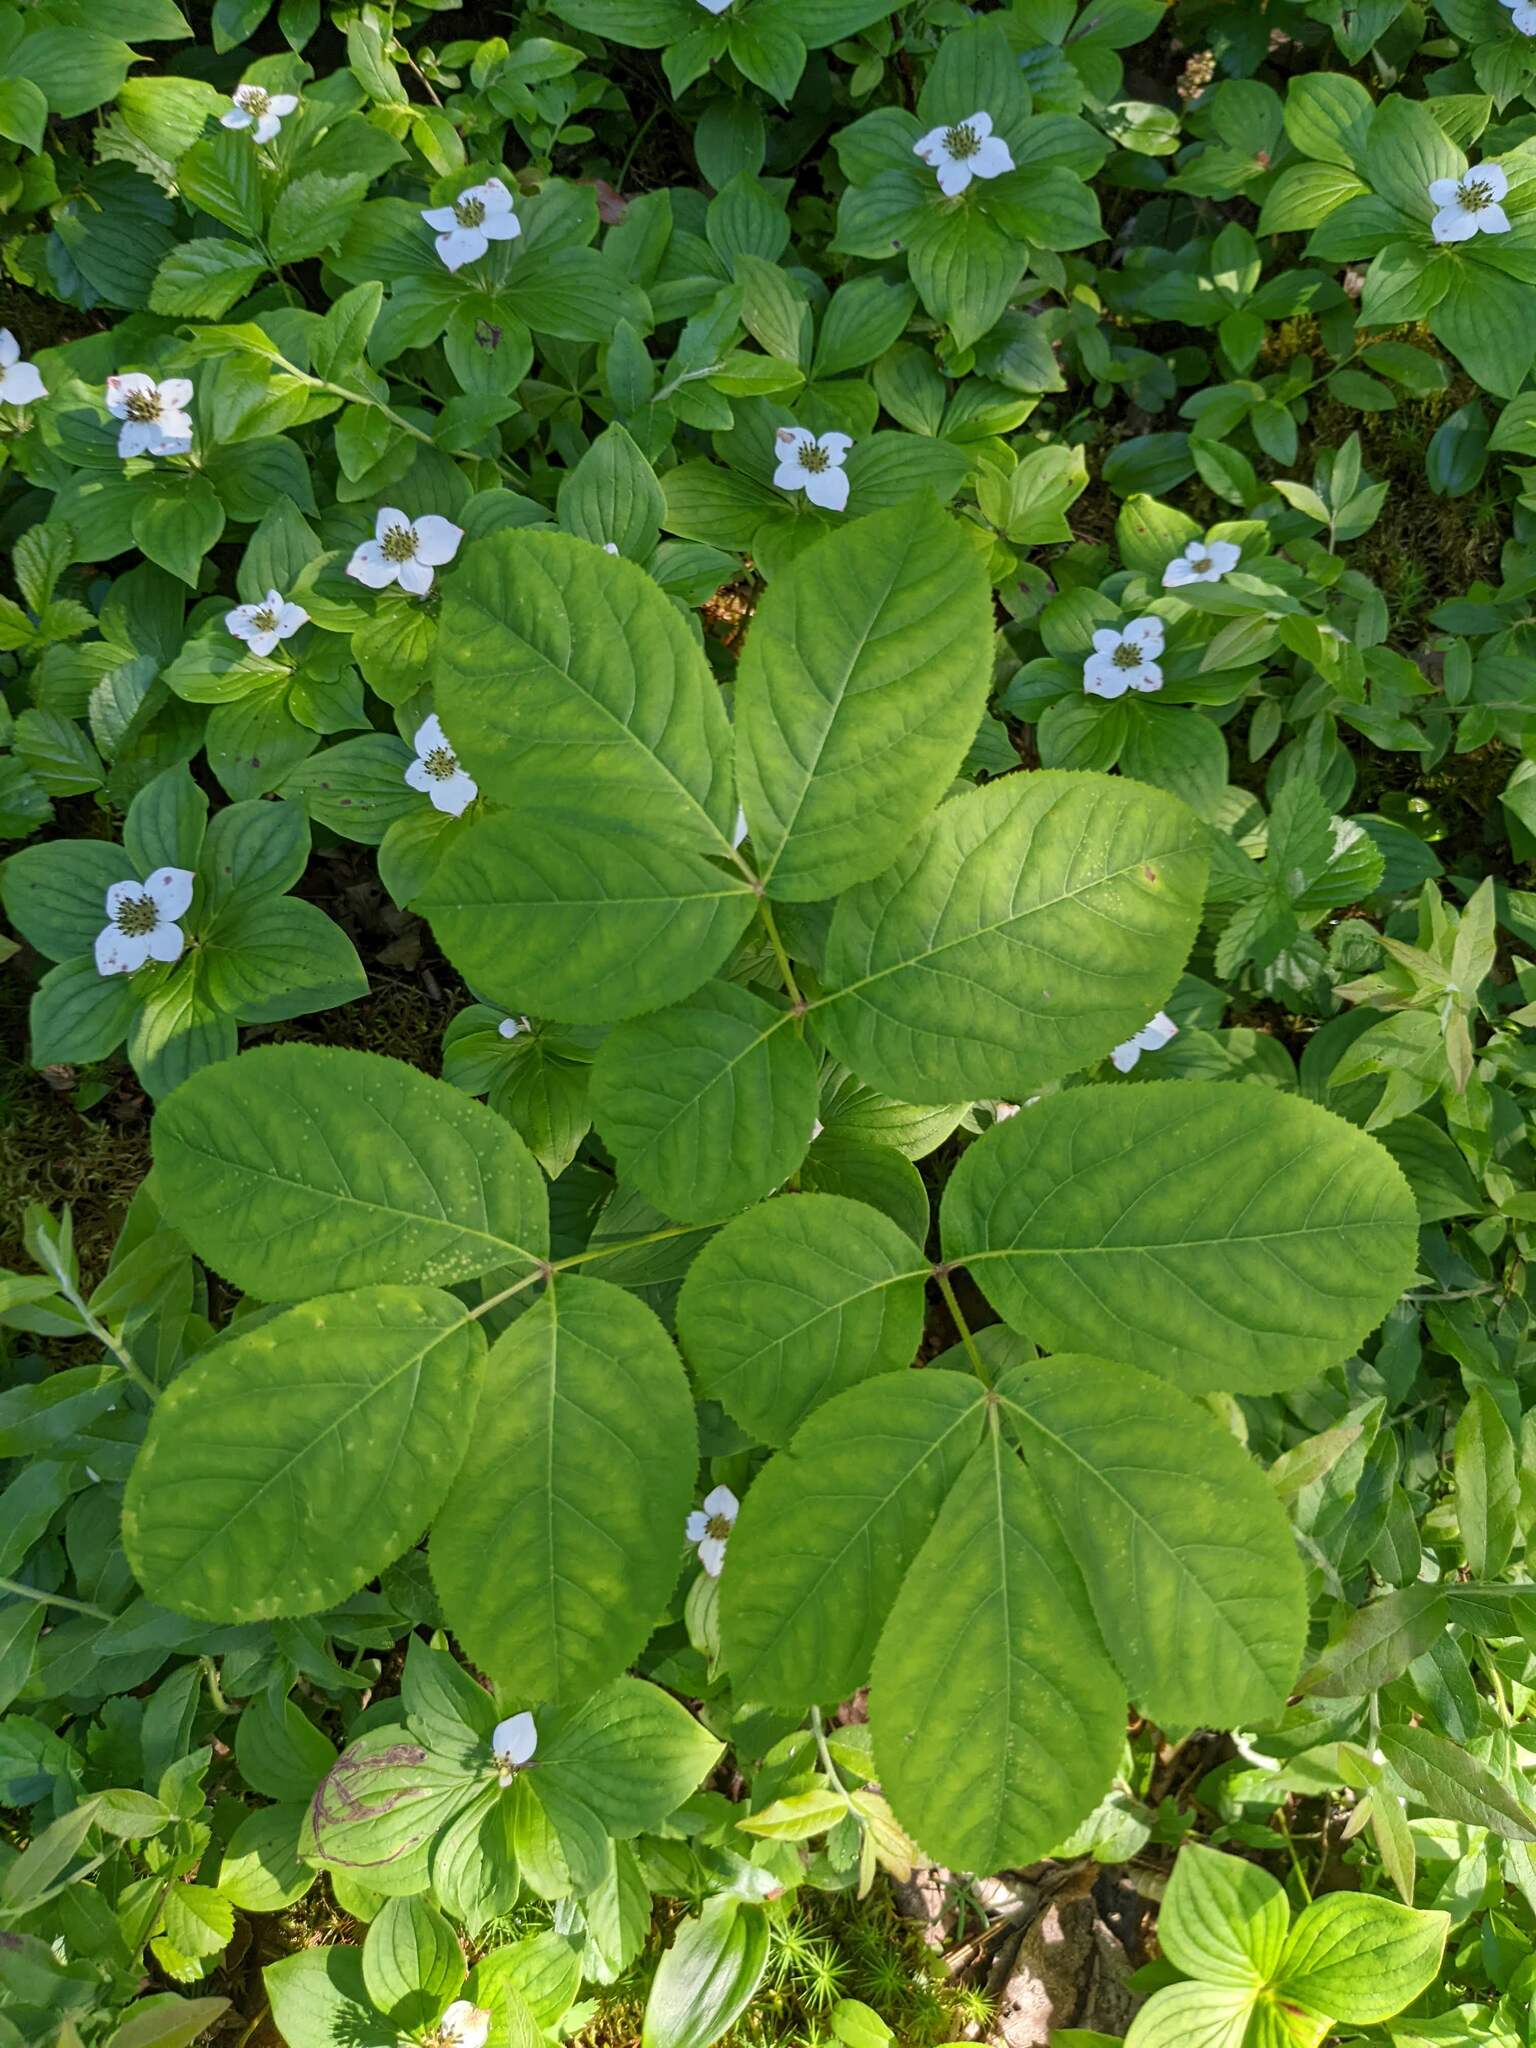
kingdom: Plantae
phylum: Tracheophyta
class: Magnoliopsida
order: Apiales
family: Araliaceae
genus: Aralia
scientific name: Aralia nudicaulis
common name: Wild sarsaparilla
